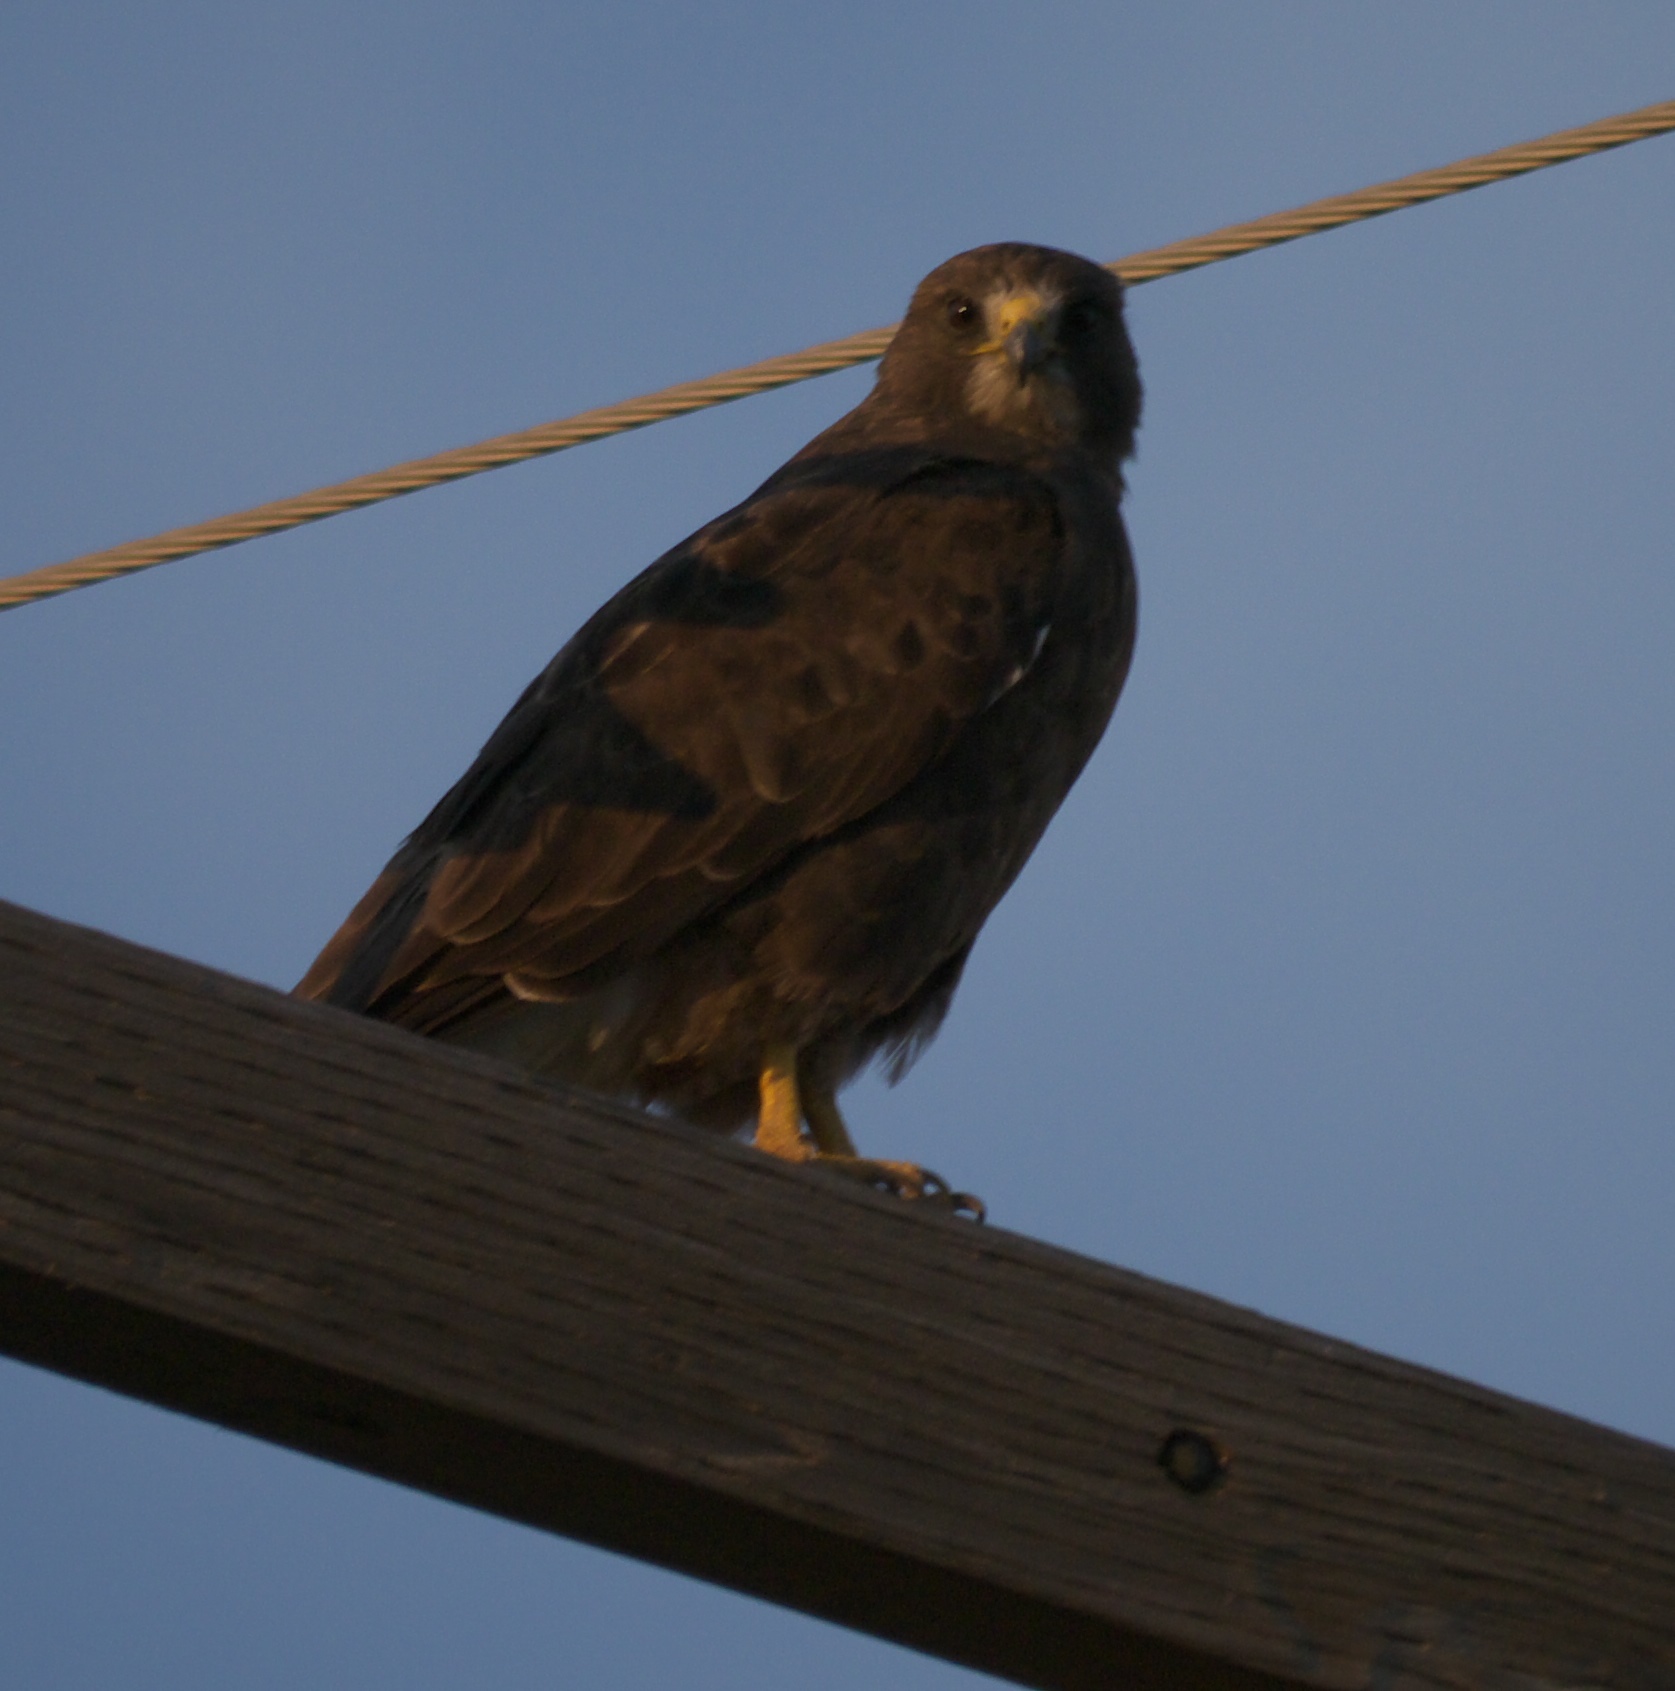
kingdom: Animalia
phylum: Chordata
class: Aves
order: Accipitriformes
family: Accipitridae
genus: Buteo
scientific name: Buteo swainsoni
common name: Swainson's hawk
